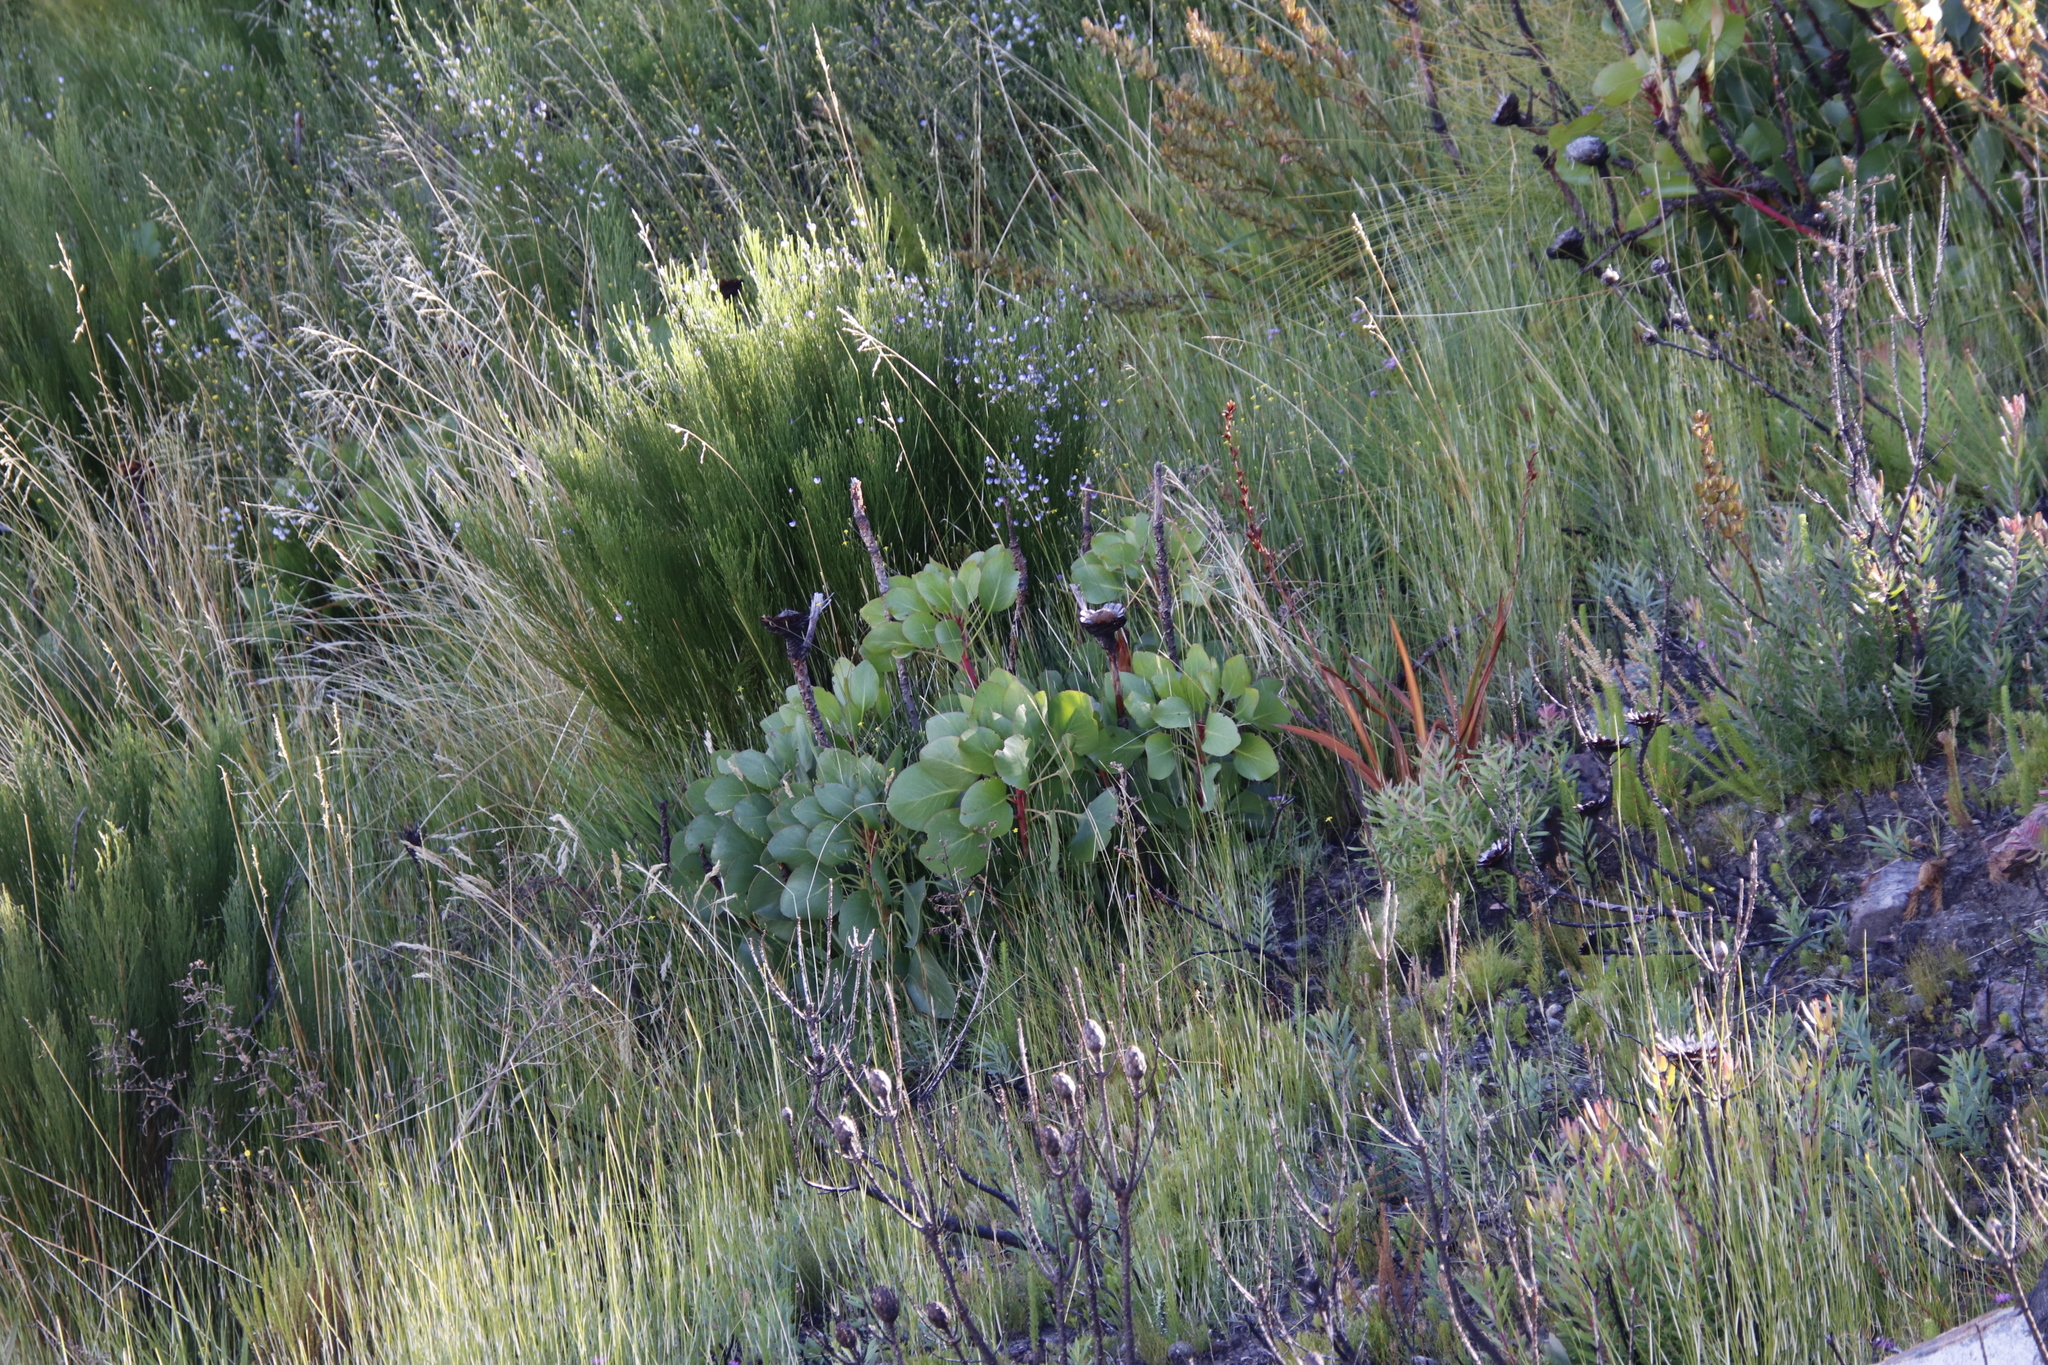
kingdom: Plantae
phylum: Tracheophyta
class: Magnoliopsida
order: Proteales
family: Proteaceae
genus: Protea
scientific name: Protea cynaroides
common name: King protea
